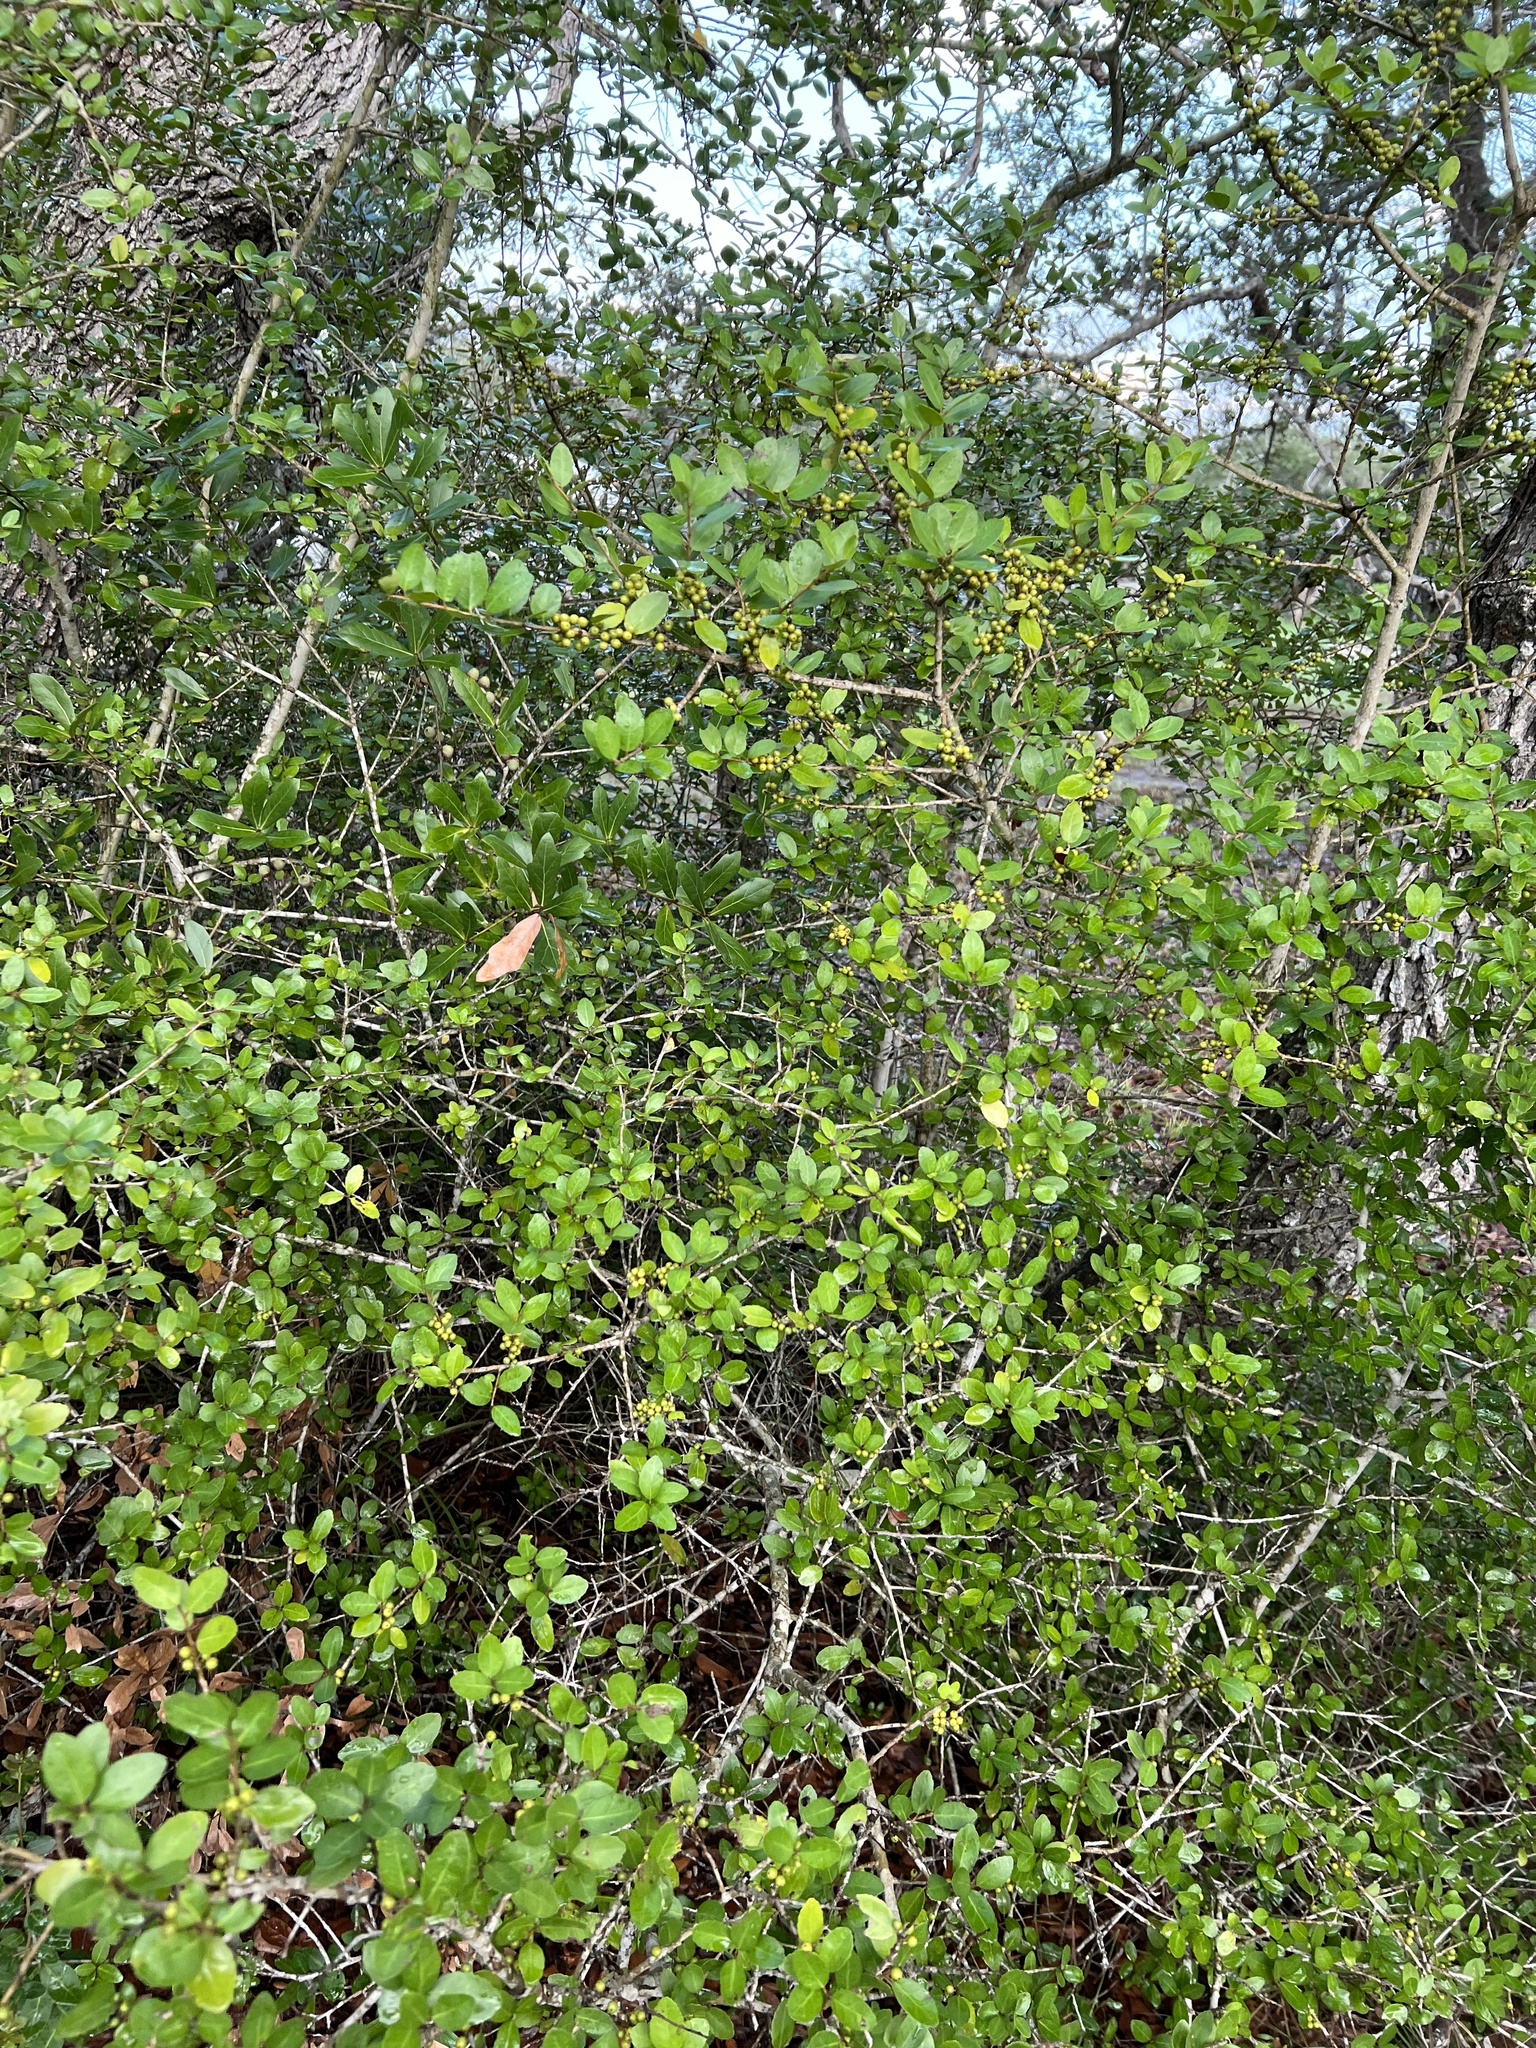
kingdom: Plantae
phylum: Tracheophyta
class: Magnoliopsida
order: Aquifoliales
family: Aquifoliaceae
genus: Ilex
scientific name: Ilex vomitoria
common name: Yaupon holly
